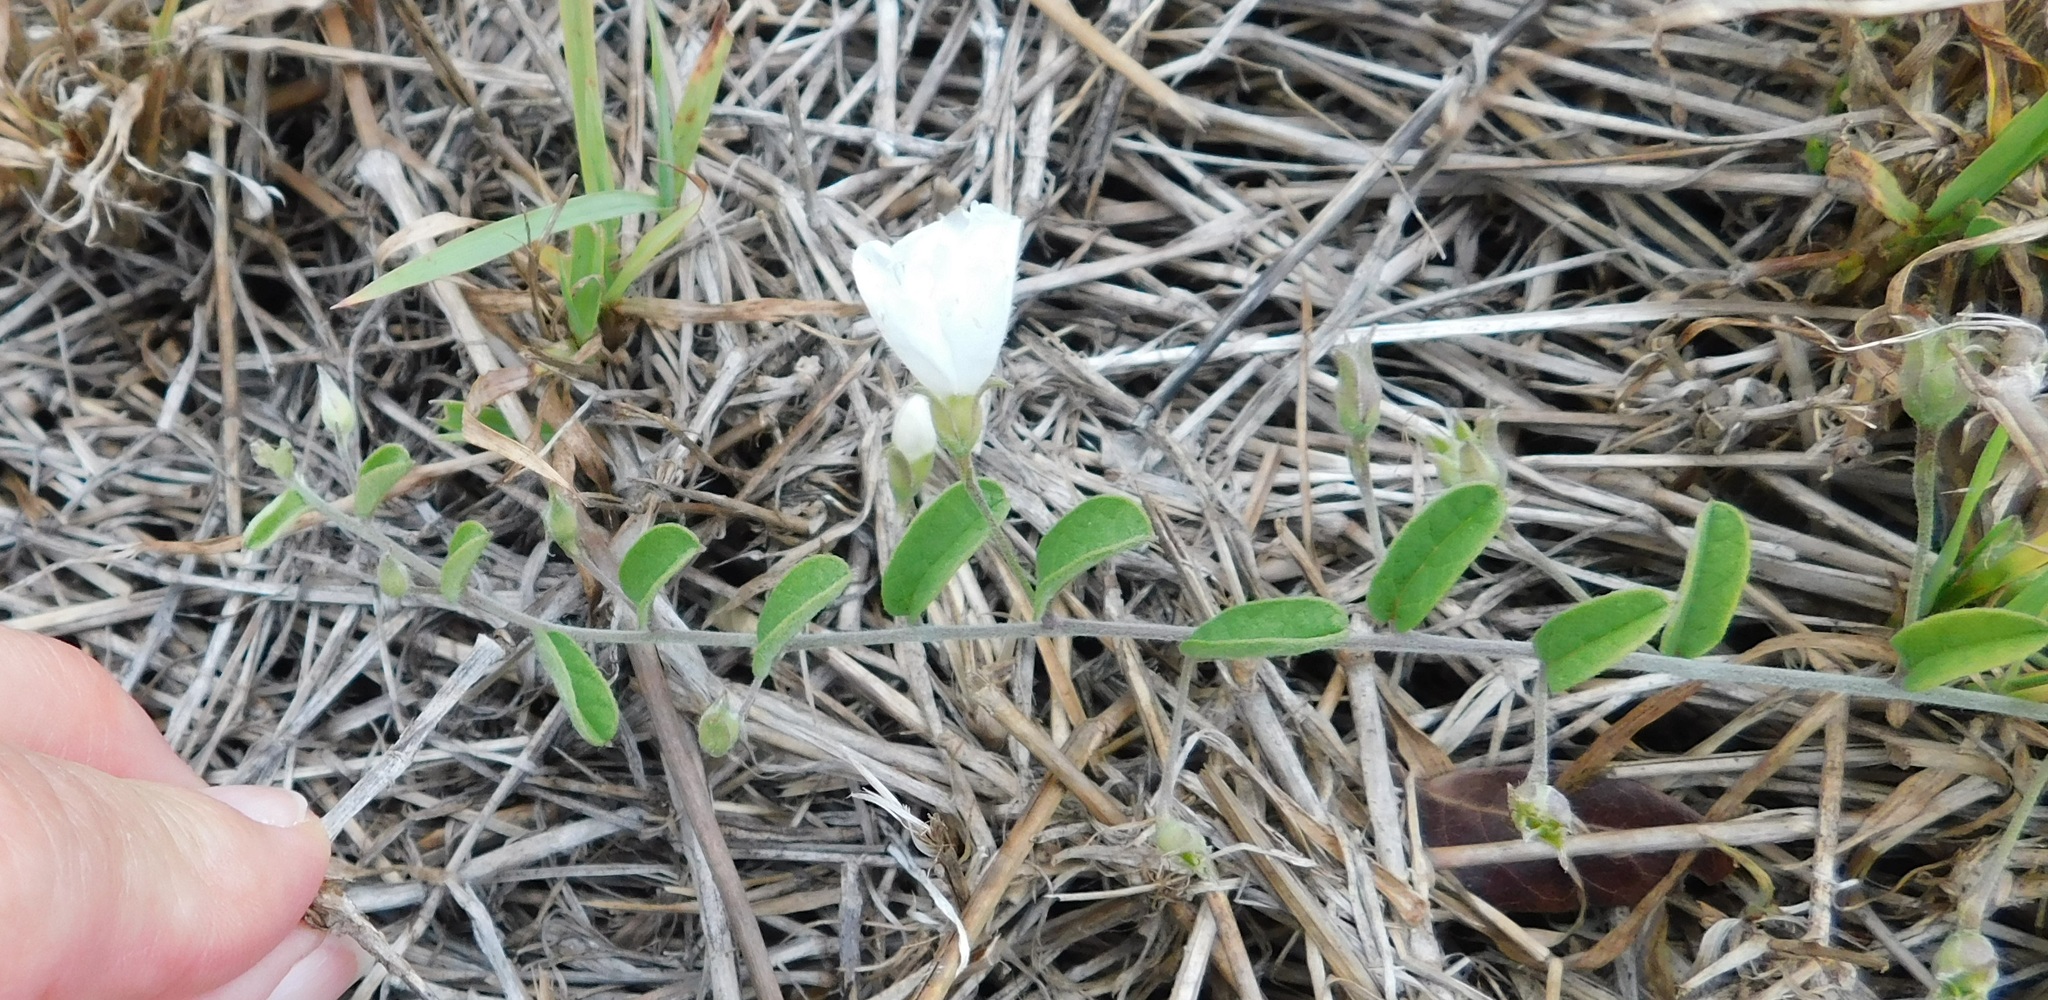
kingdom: Plantae
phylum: Tracheophyta
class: Magnoliopsida
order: Solanales
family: Convolvulaceae
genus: Stylisma
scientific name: Stylisma villosa
